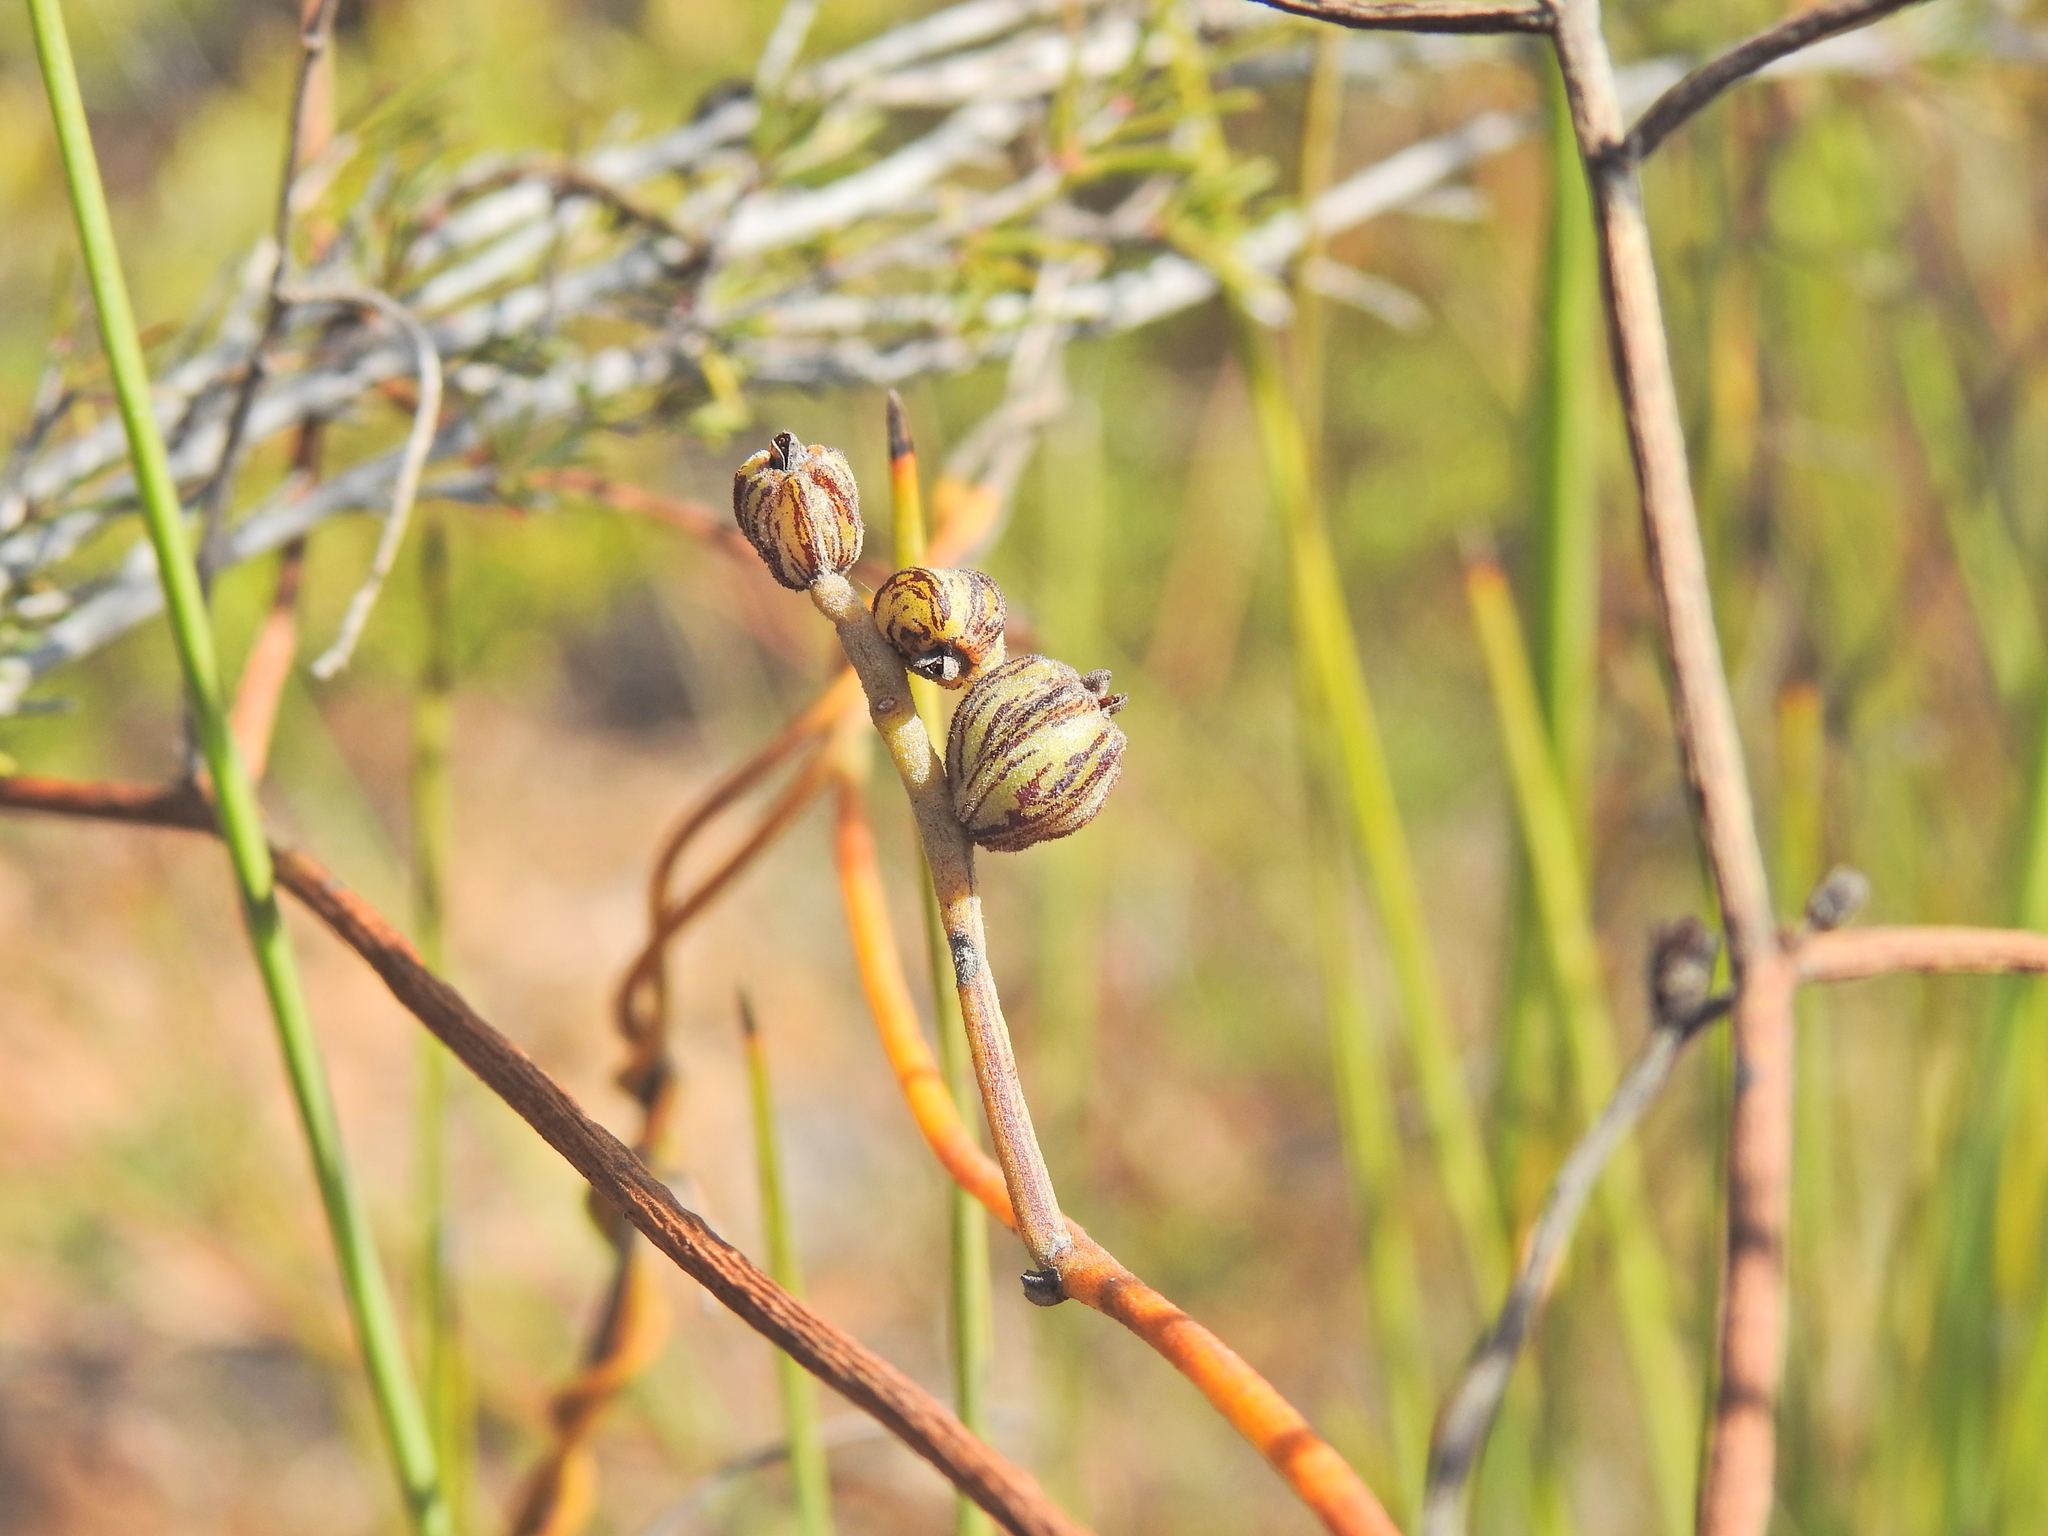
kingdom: Plantae
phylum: Tracheophyta
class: Magnoliopsida
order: Laurales
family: Lauraceae
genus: Cassytha
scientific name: Cassytha pubescens
